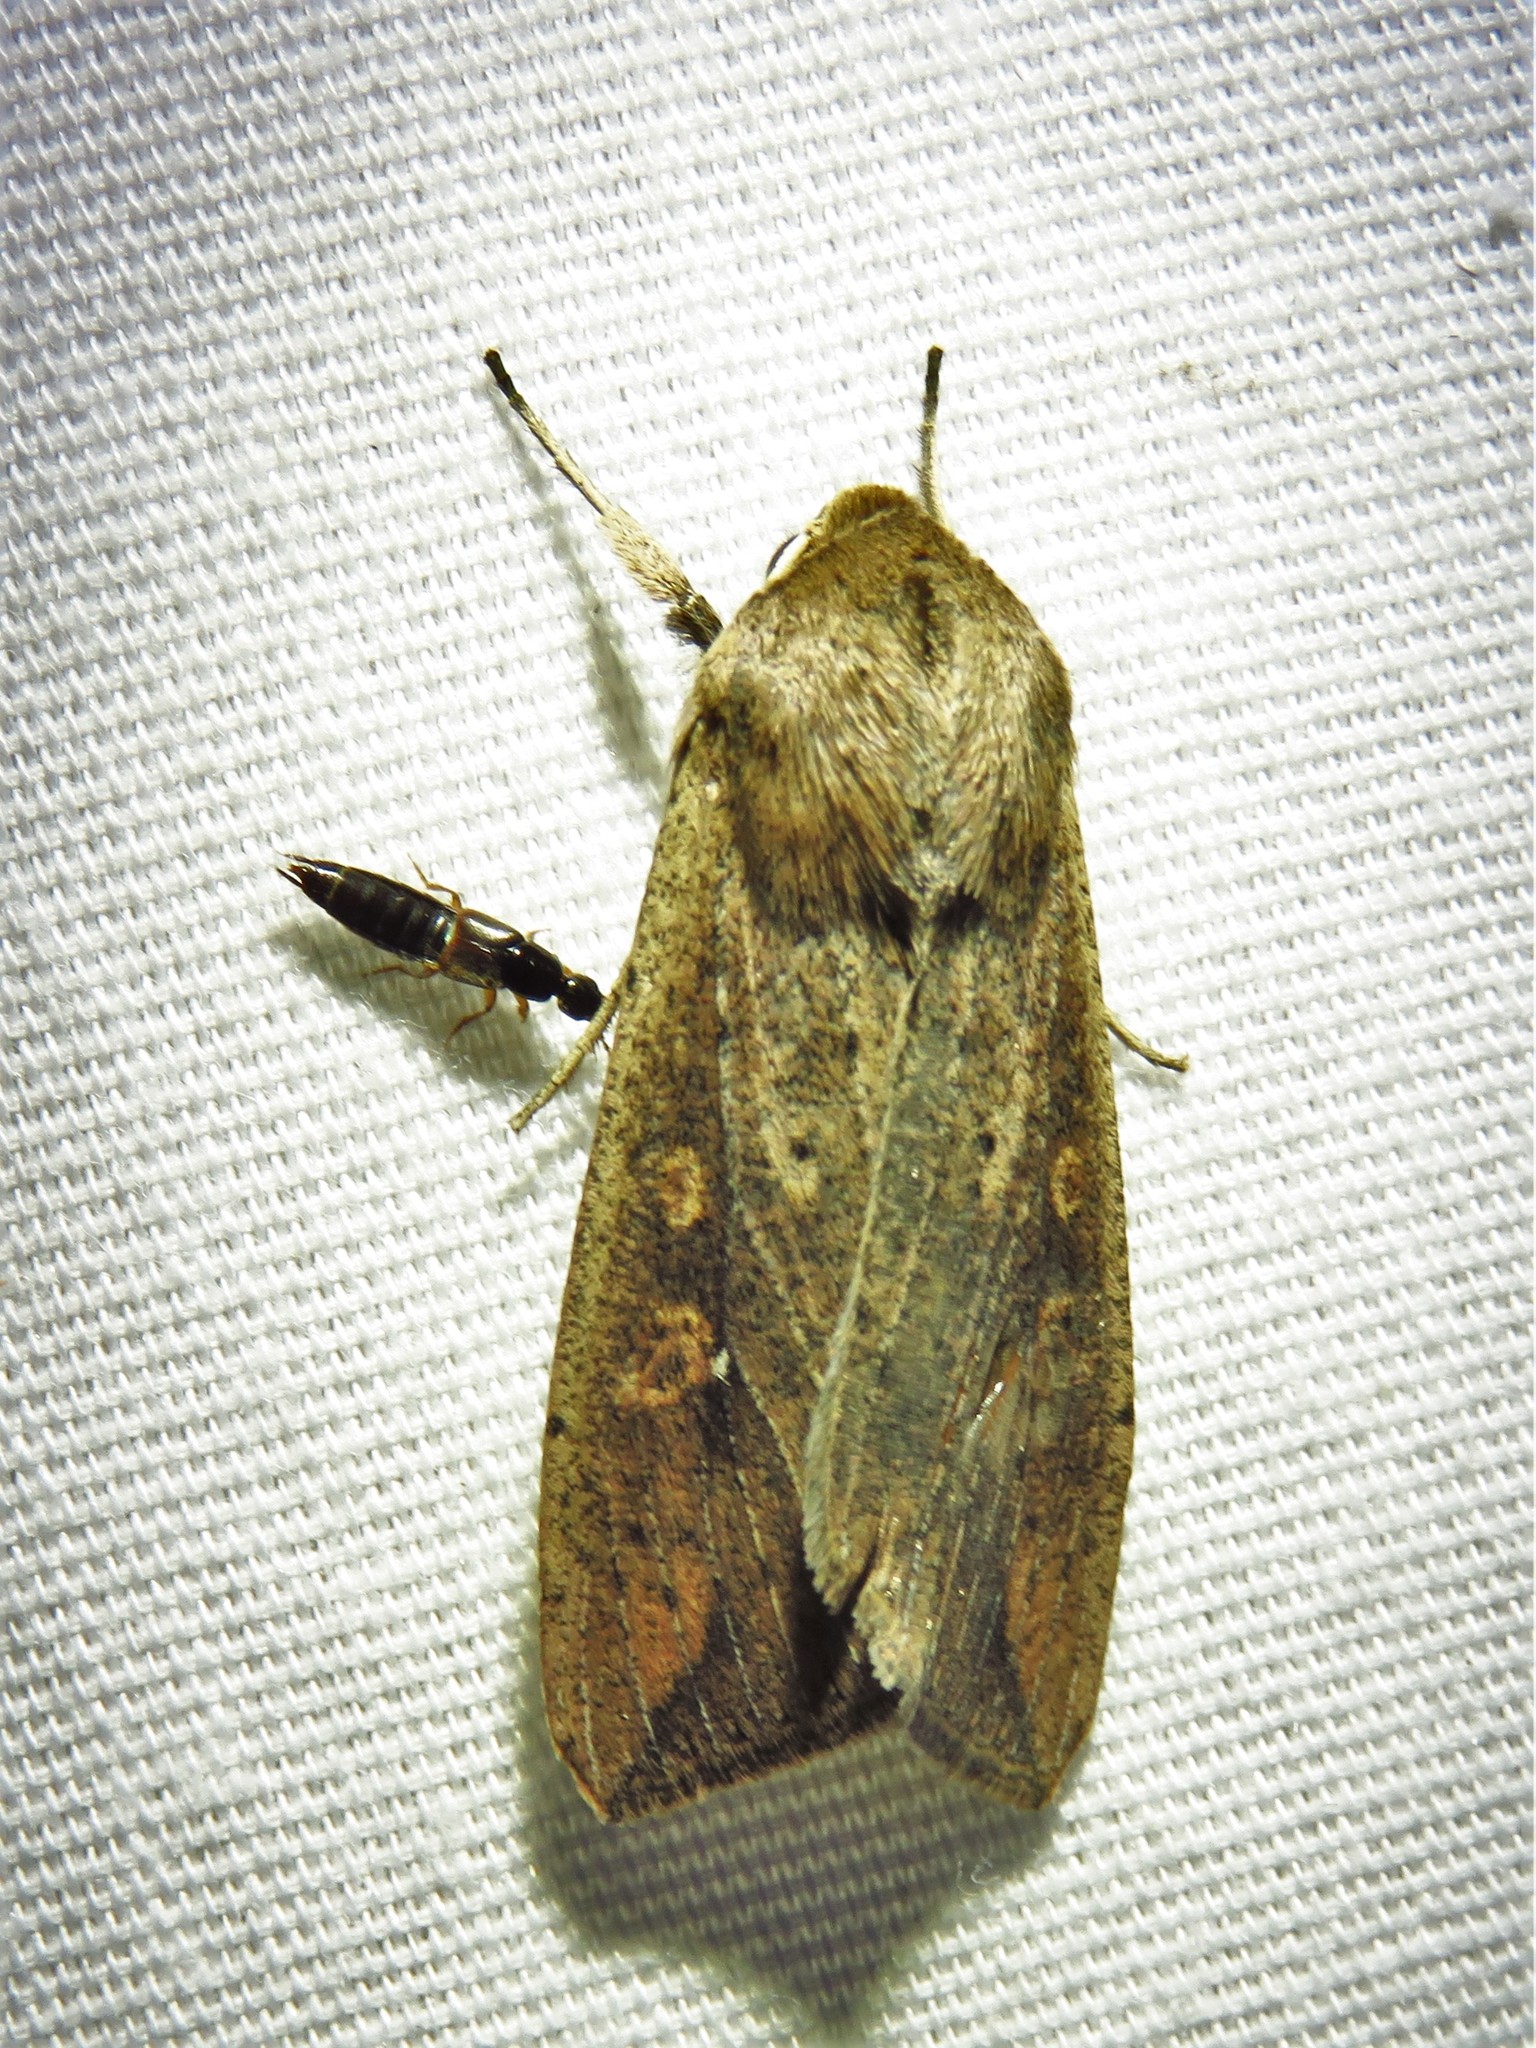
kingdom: Animalia
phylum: Arthropoda
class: Insecta
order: Lepidoptera
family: Noctuidae
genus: Mythimna
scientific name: Mythimna unipuncta
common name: White-speck
